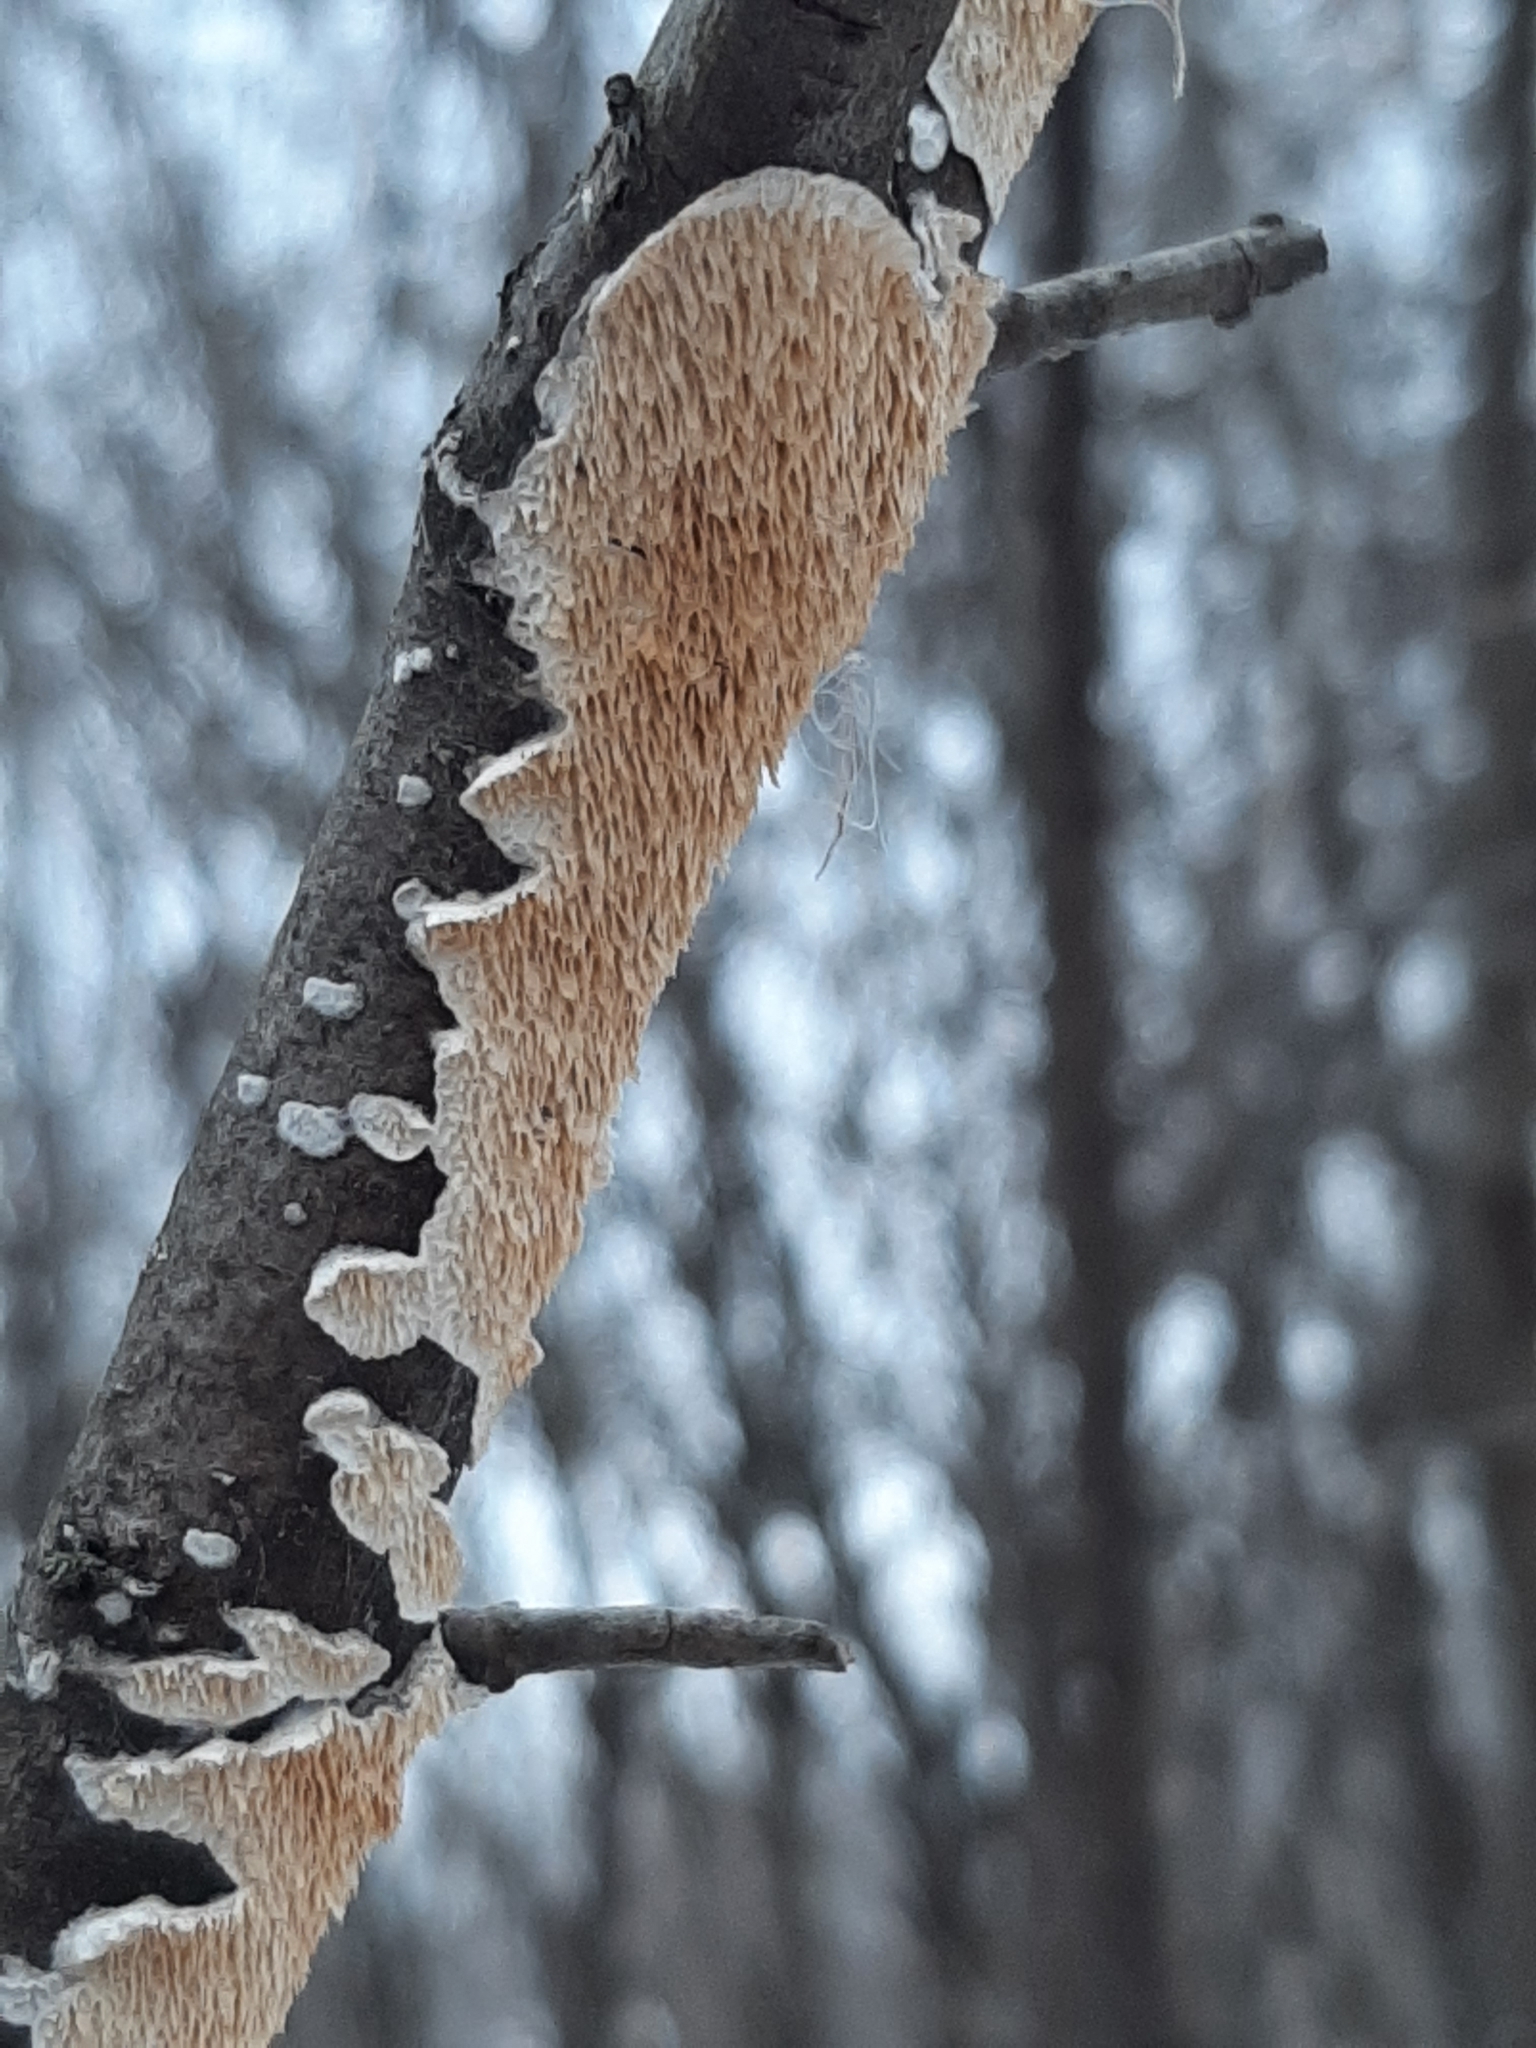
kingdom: Fungi
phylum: Basidiomycota
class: Agaricomycetes
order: Polyporales
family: Irpicaceae
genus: Irpex
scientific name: Irpex lacteus
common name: Milk-white toothed polypore
